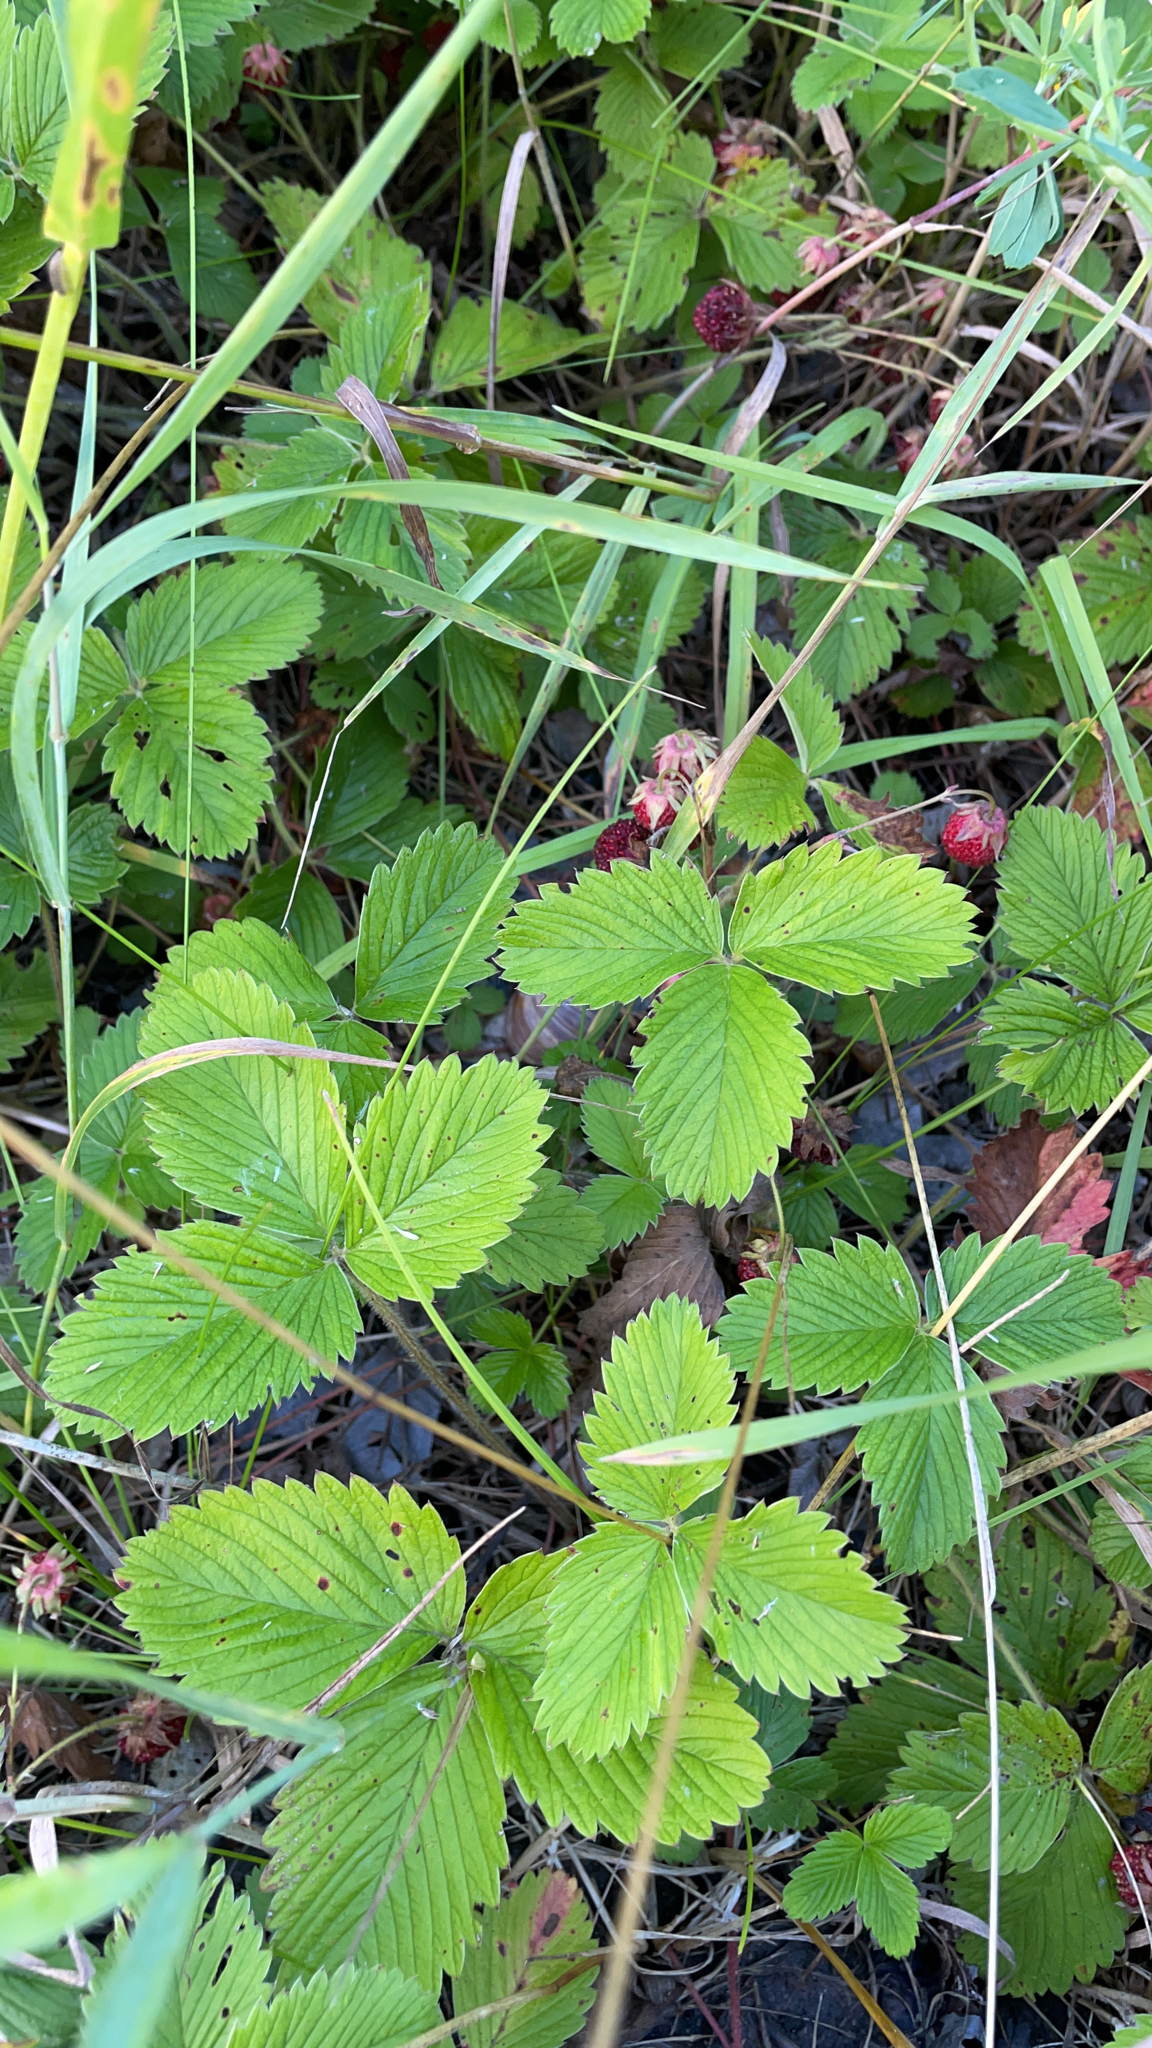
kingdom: Plantae
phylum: Tracheophyta
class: Magnoliopsida
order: Rosales
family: Rosaceae
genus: Fragaria
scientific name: Fragaria viridis
